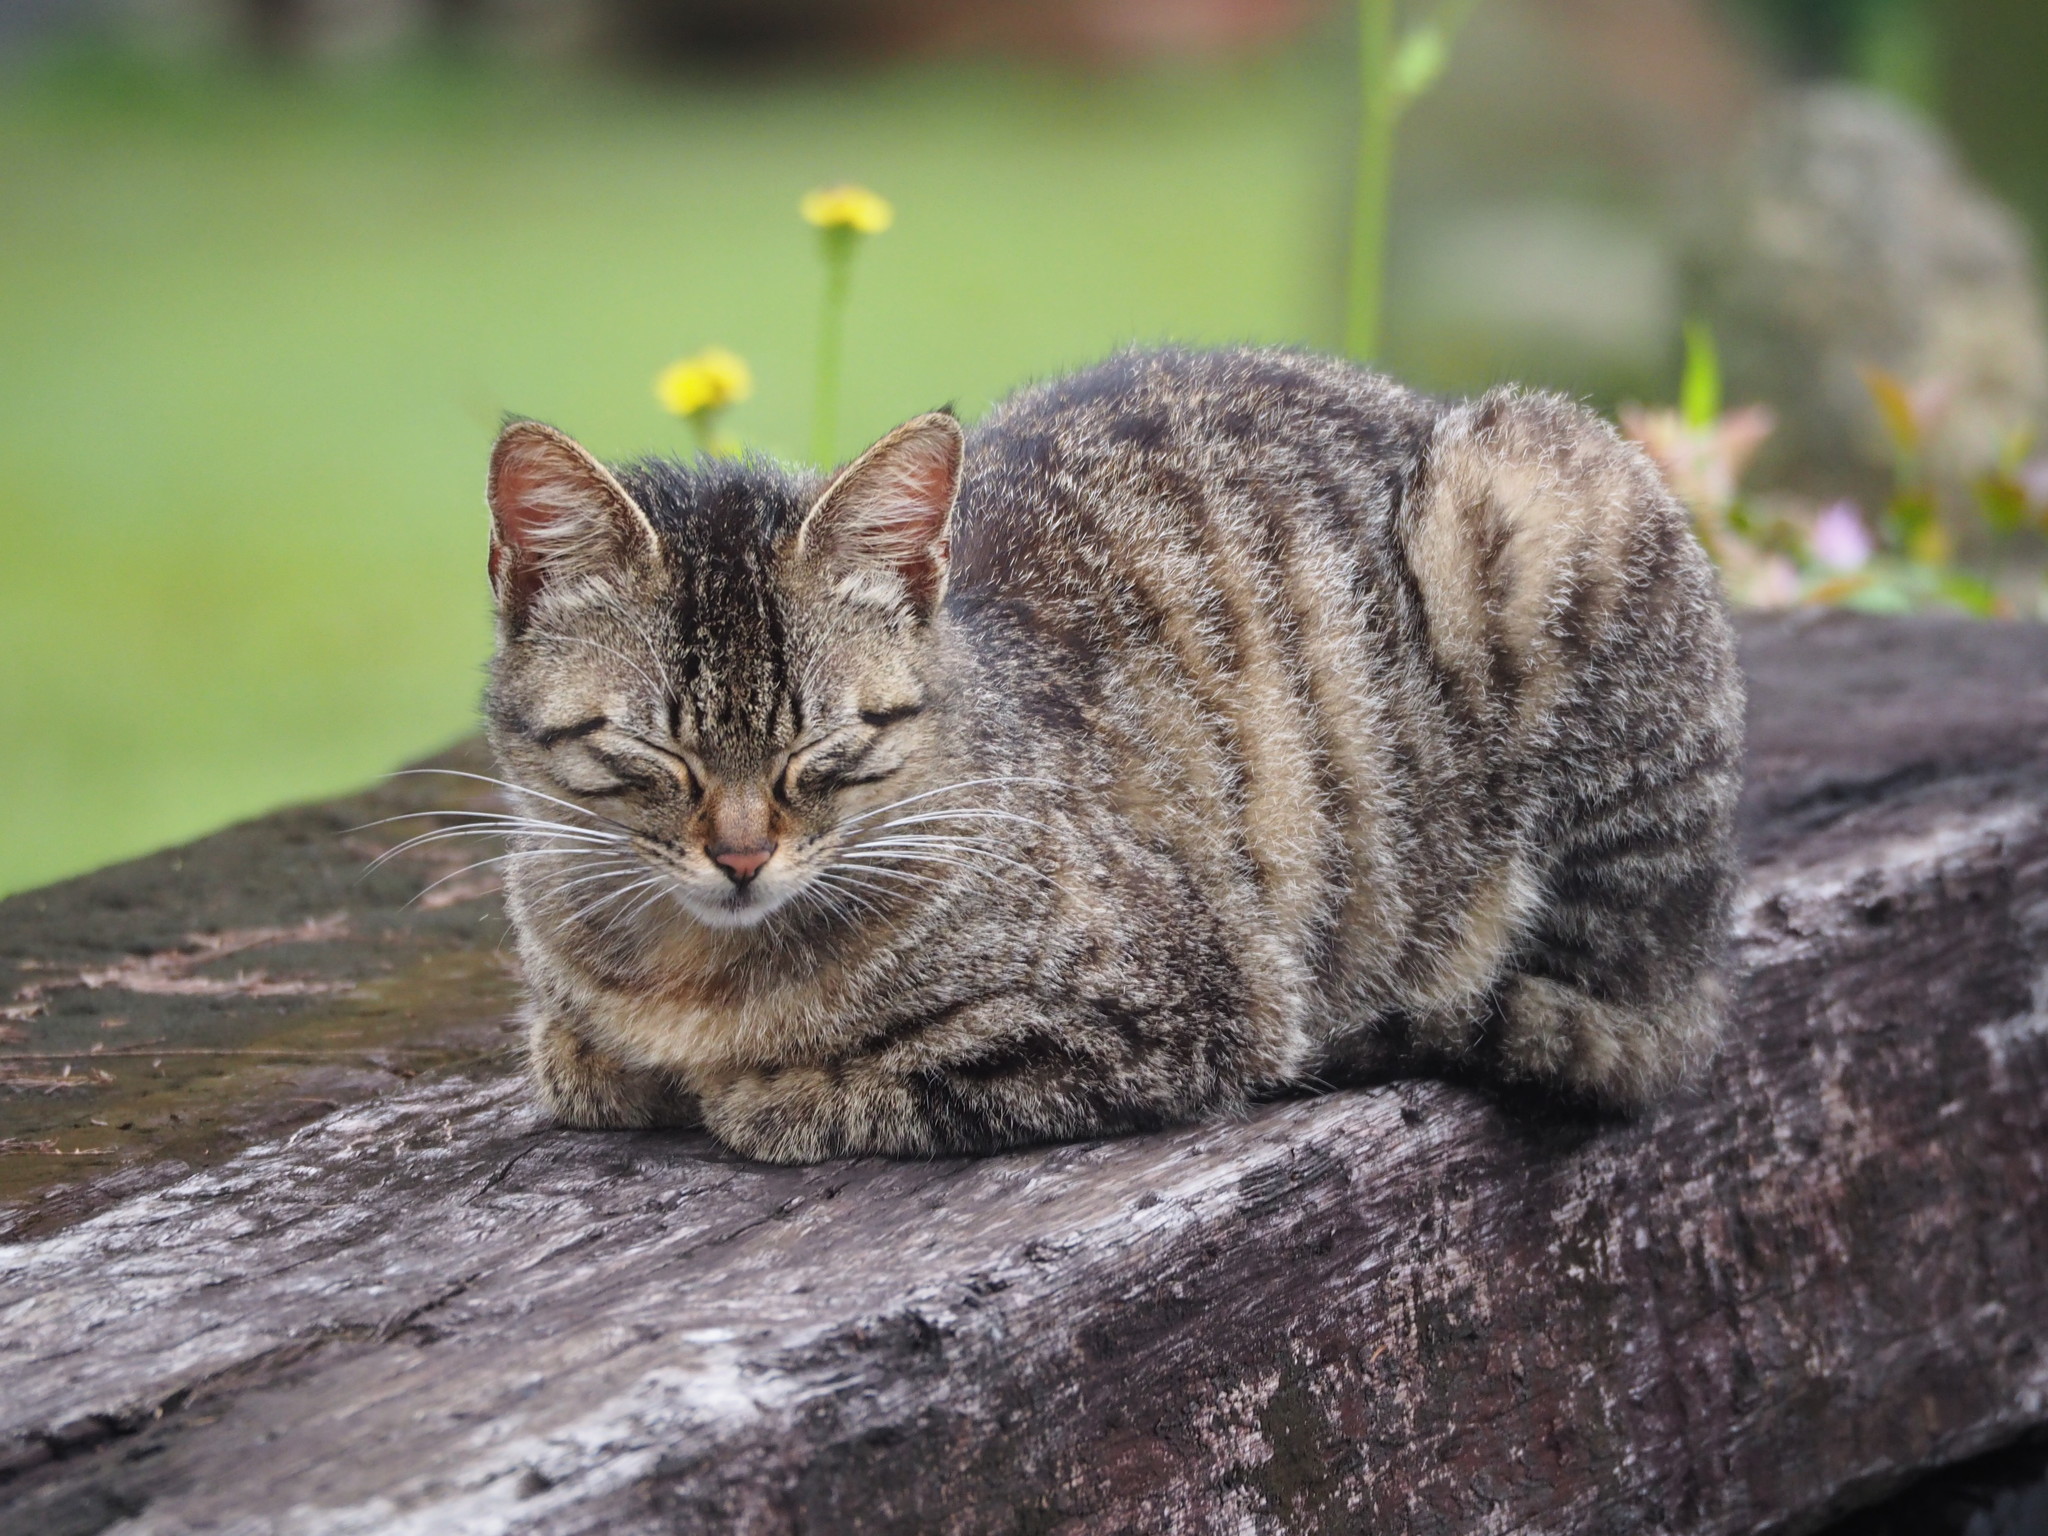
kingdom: Animalia
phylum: Chordata
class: Mammalia
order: Carnivora
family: Felidae
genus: Felis
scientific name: Felis catus
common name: Domestic cat
